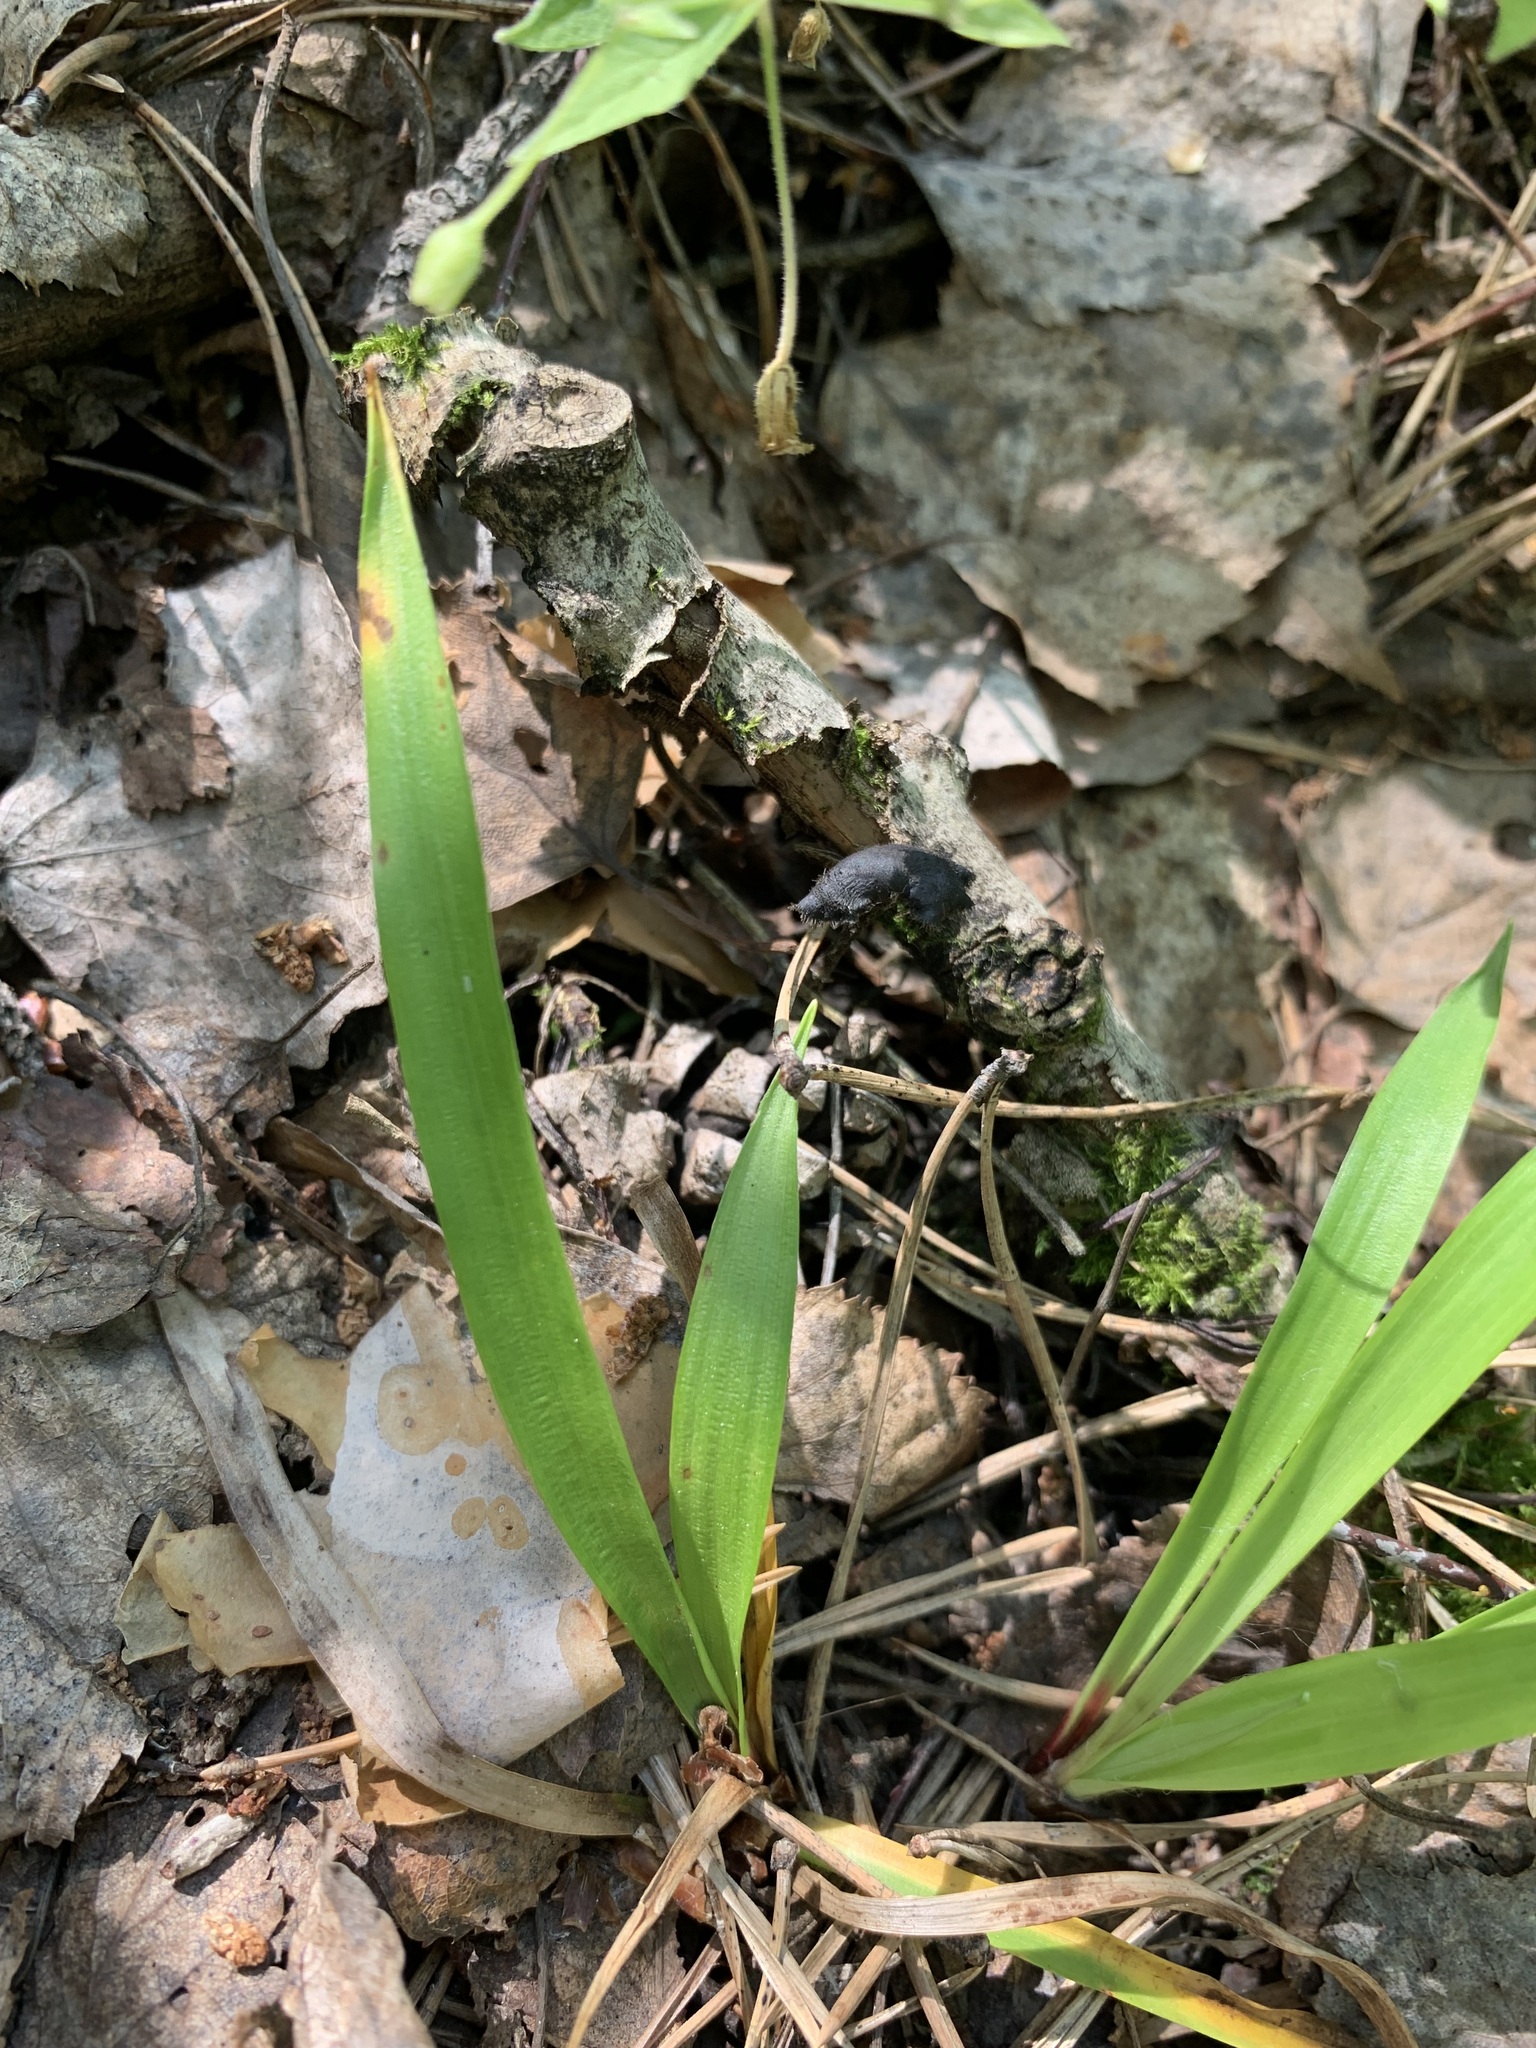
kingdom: Plantae
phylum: Tracheophyta
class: Liliopsida
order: Poales
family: Juncaceae
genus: Luzula
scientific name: Luzula pilosa
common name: Hairy wood-rush
